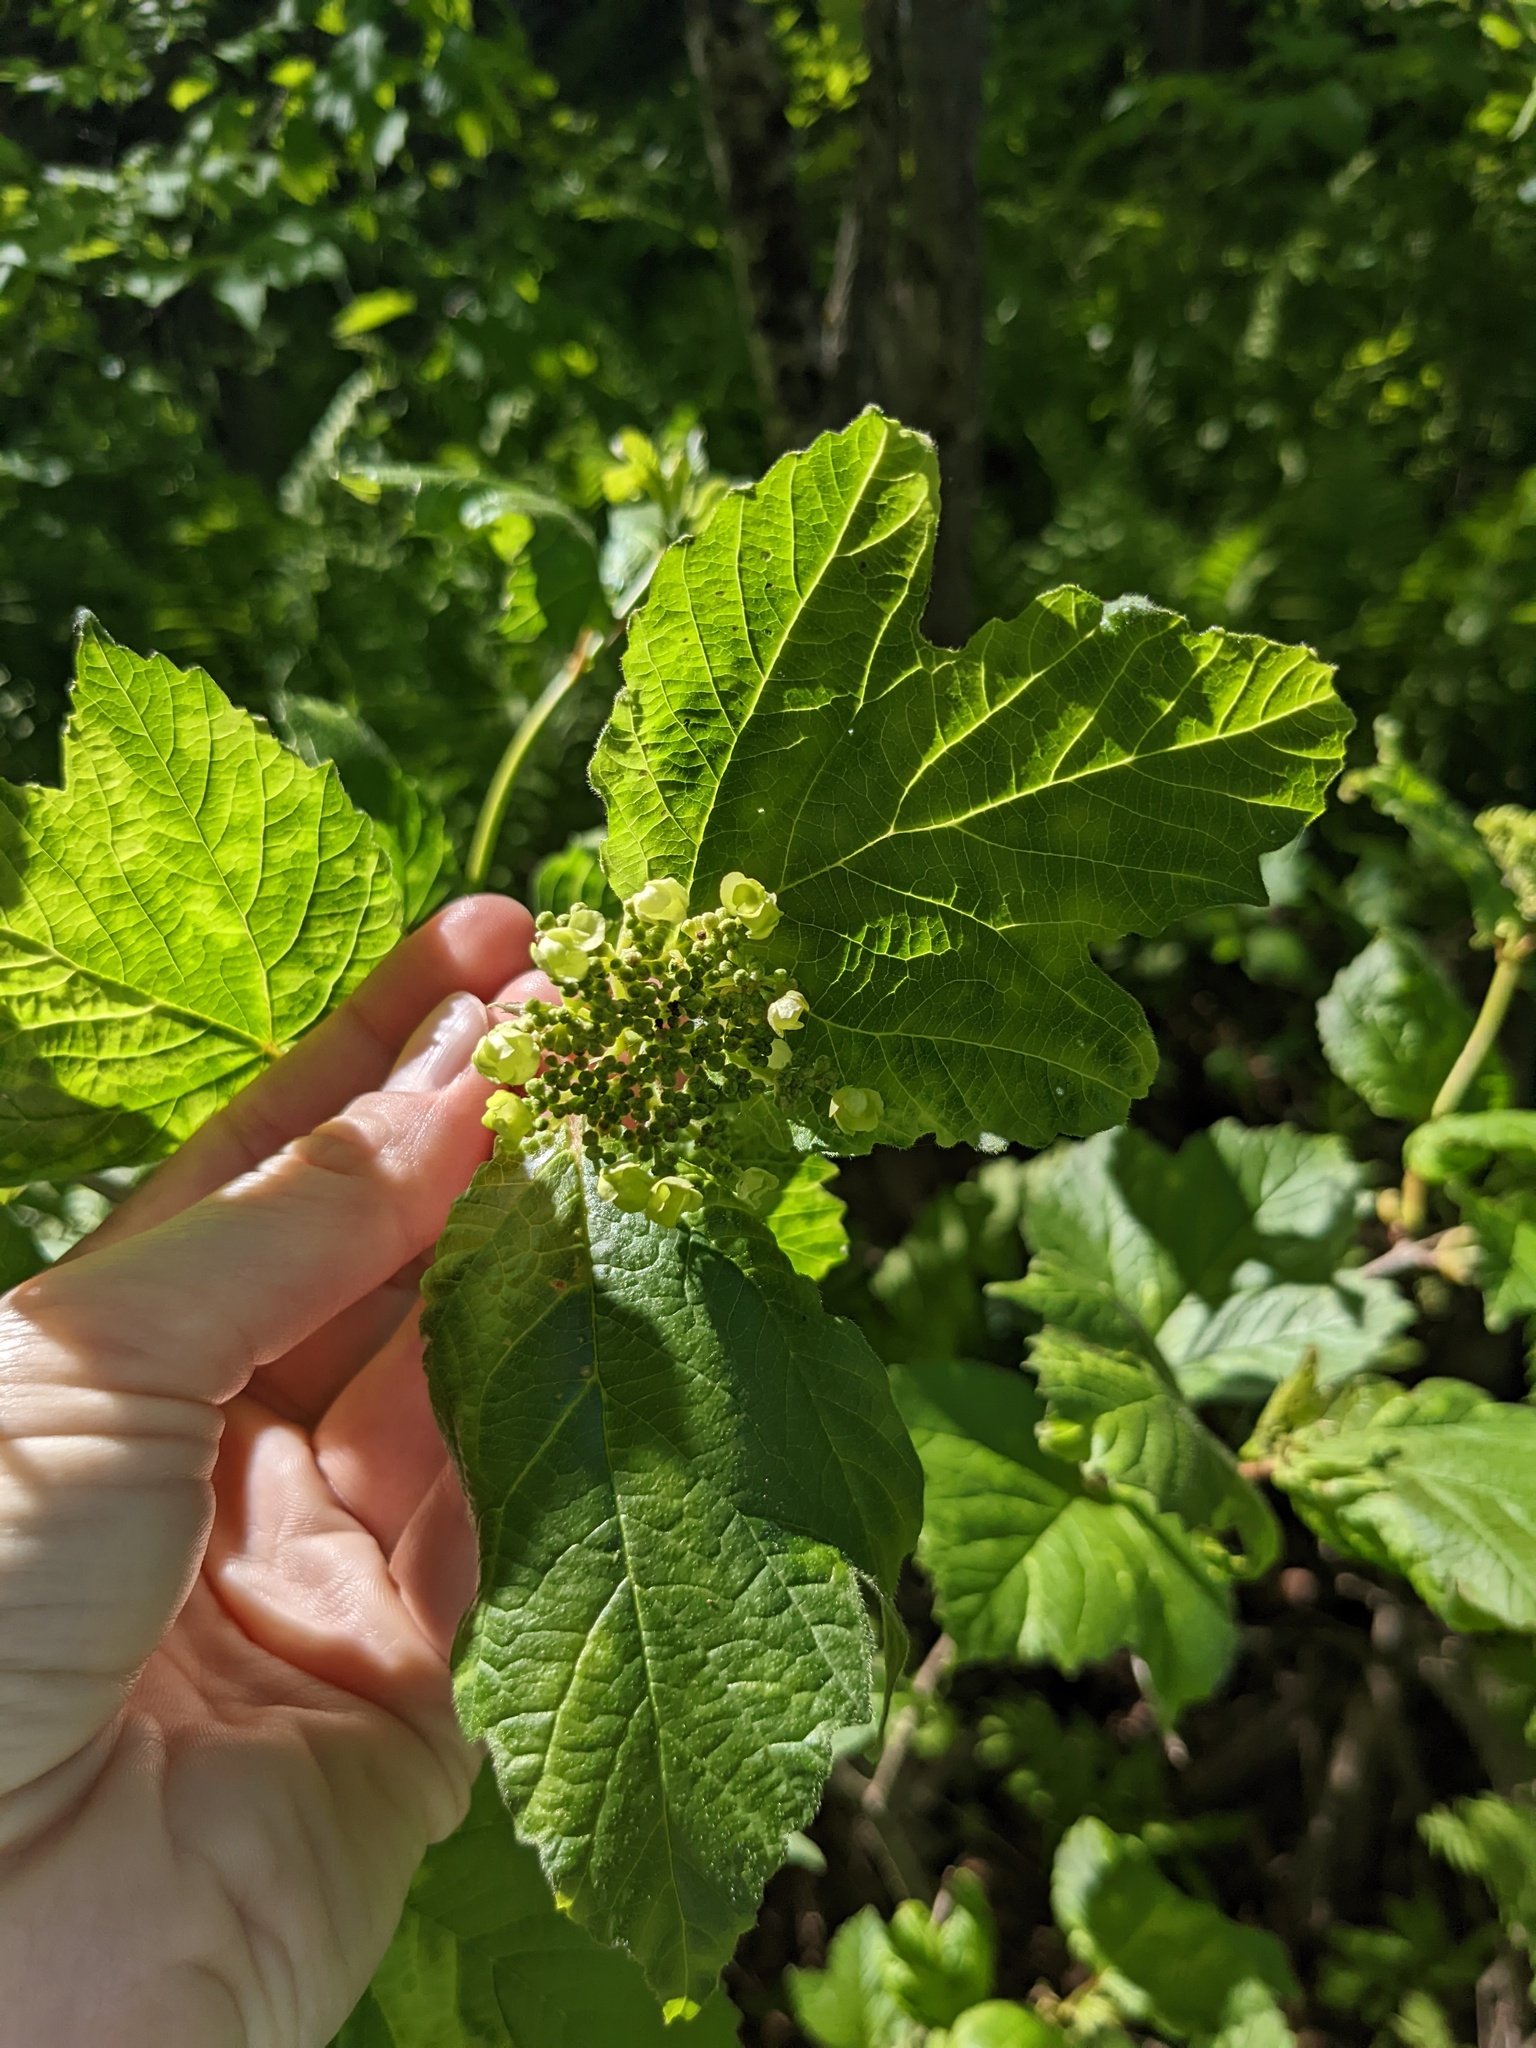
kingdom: Plantae
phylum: Tracheophyta
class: Magnoliopsida
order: Dipsacales
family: Viburnaceae
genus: Viburnum
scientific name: Viburnum opulus
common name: Guelder-rose
